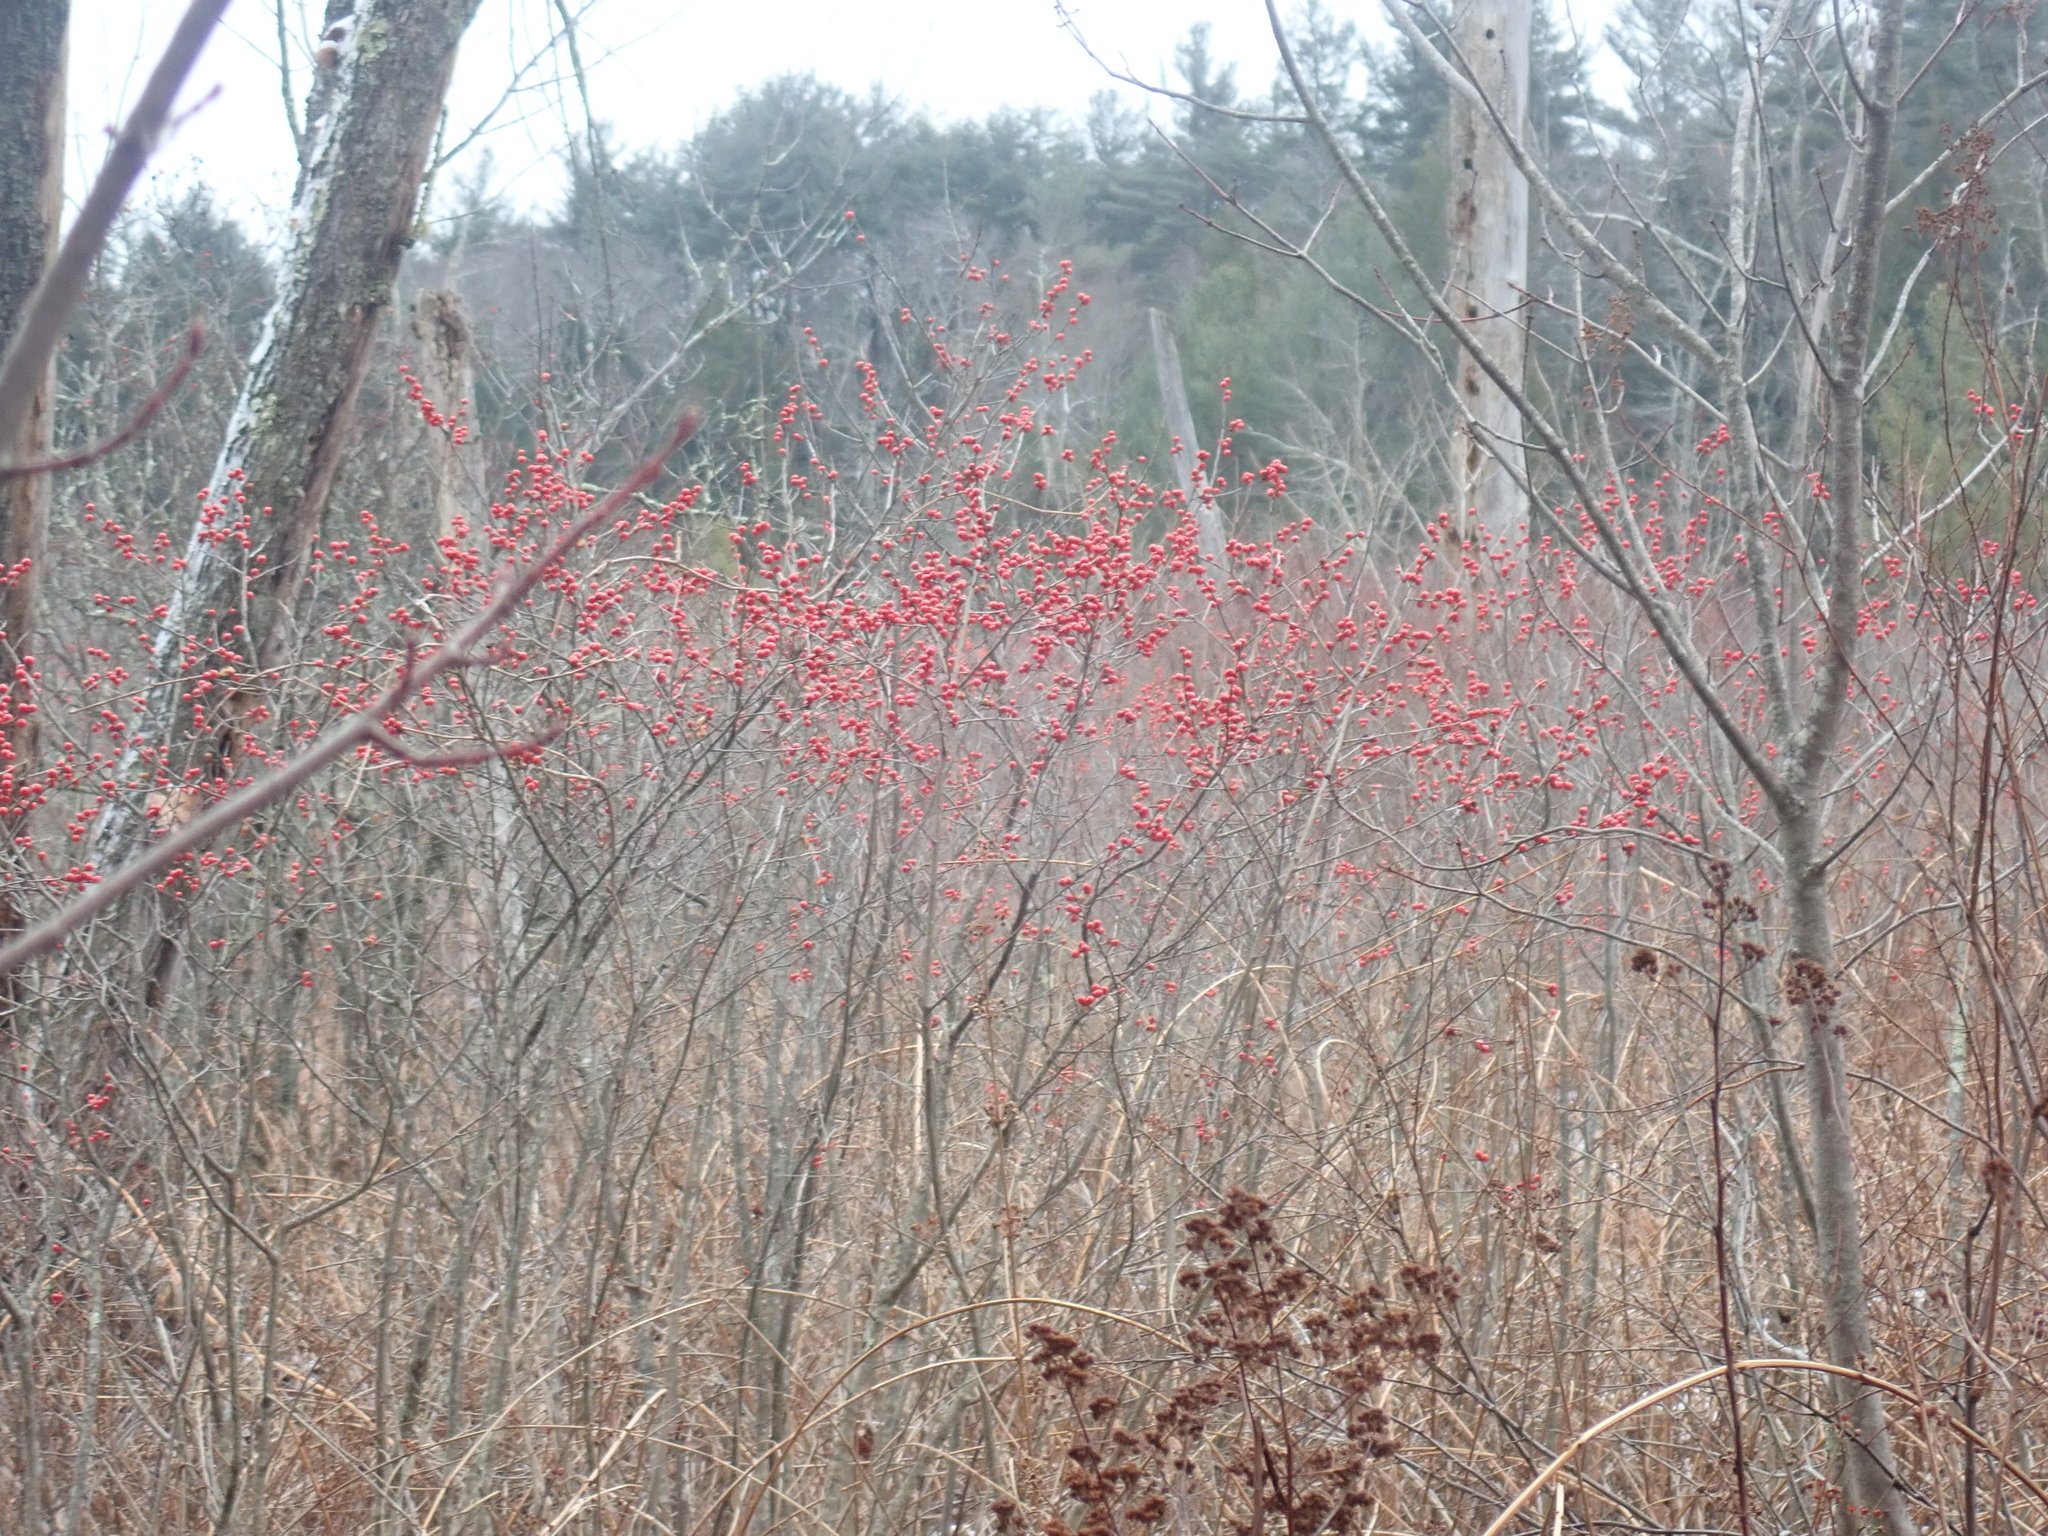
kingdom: Plantae
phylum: Tracheophyta
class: Magnoliopsida
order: Aquifoliales
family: Aquifoliaceae
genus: Ilex
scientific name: Ilex verticillata
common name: Virginia winterberry
